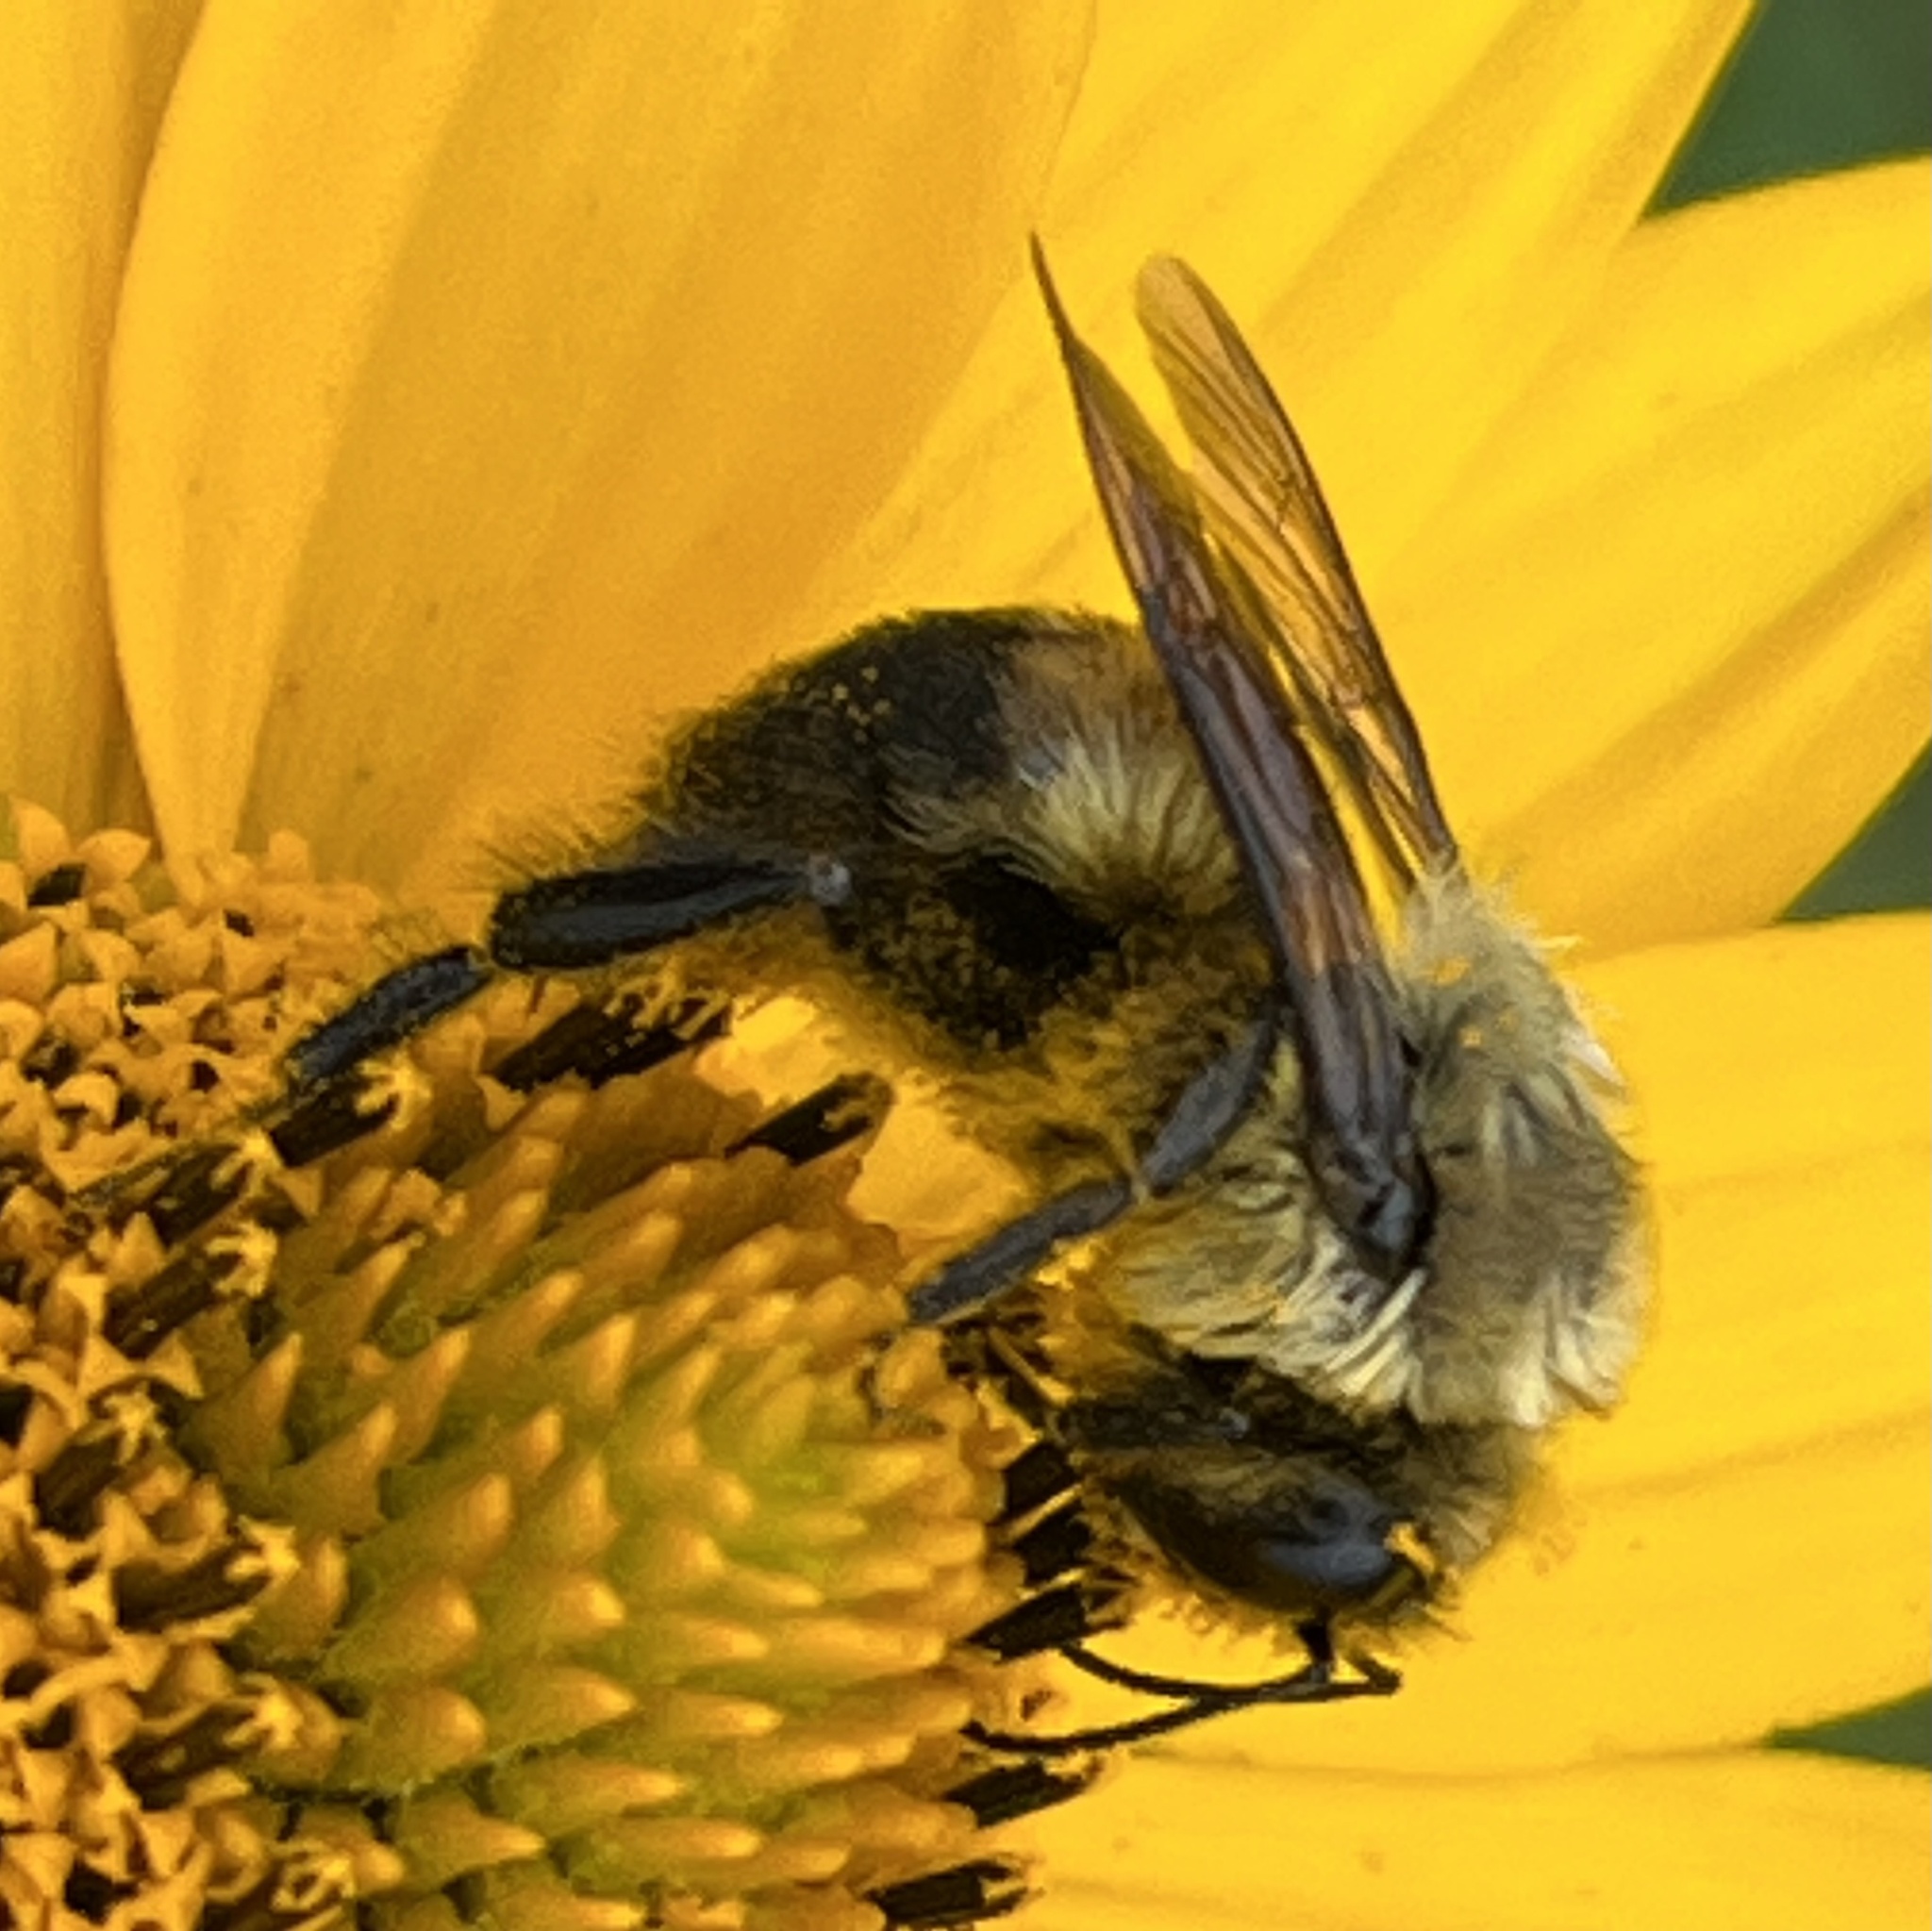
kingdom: Animalia
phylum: Arthropoda
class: Insecta
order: Hymenoptera
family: Apidae
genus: Bombus
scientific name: Bombus griseocollis
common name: Brown-belted bumble bee
